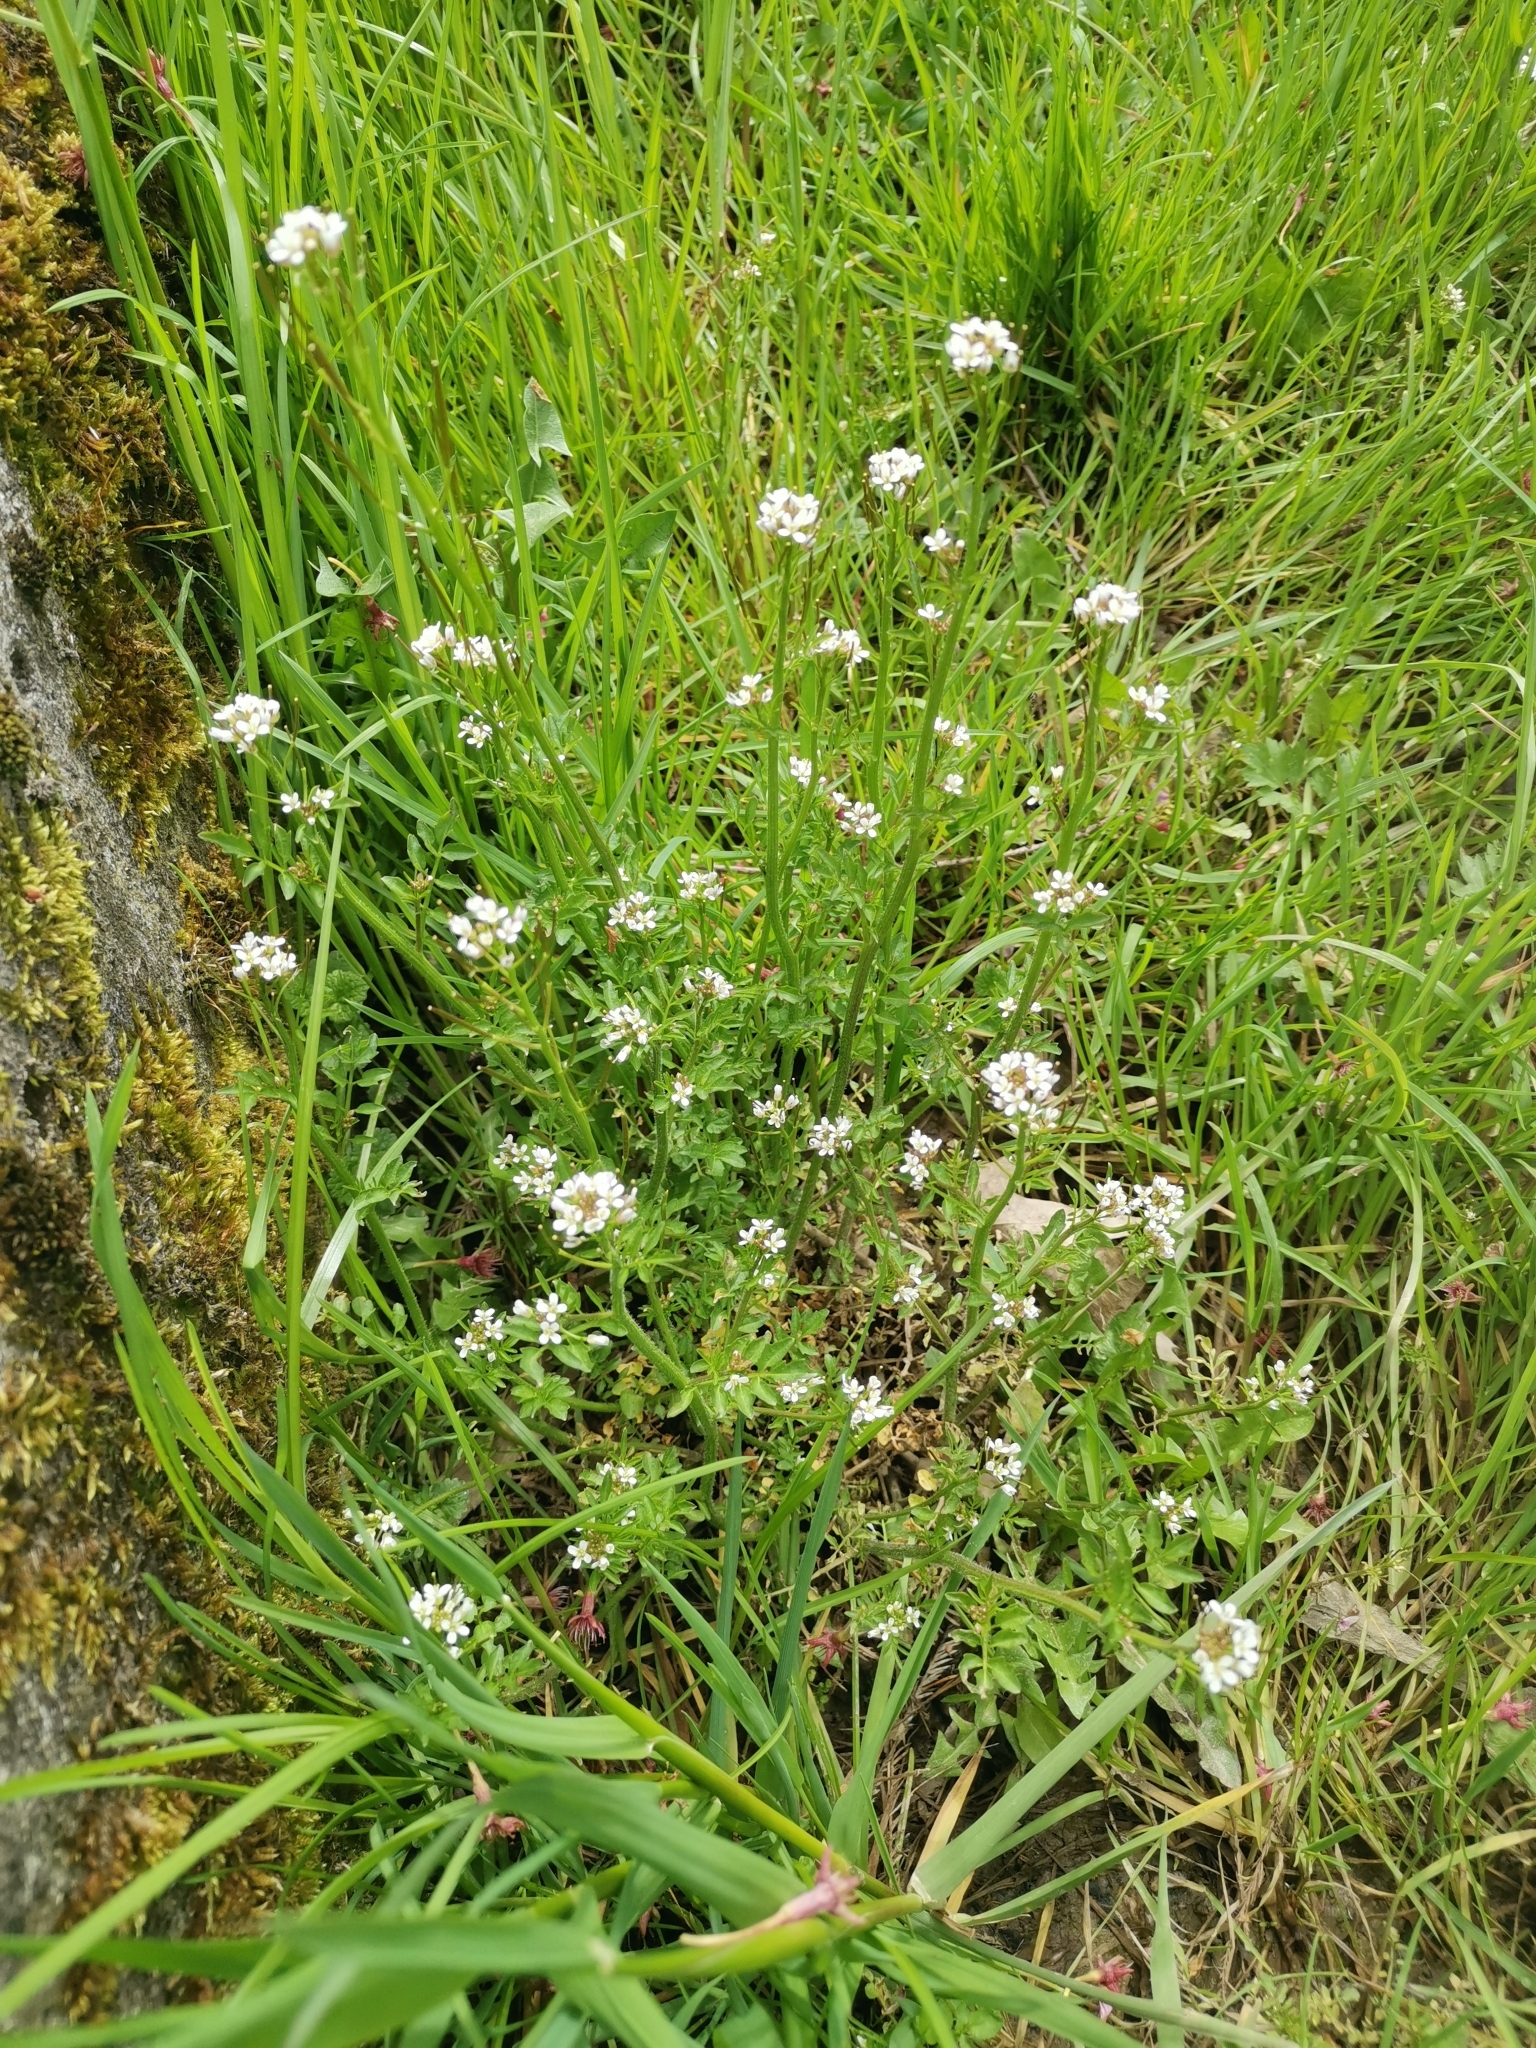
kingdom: Plantae
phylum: Tracheophyta
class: Magnoliopsida
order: Brassicales
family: Brassicaceae
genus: Cardamine
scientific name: Cardamine flexuosa
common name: Woodland bittercress
